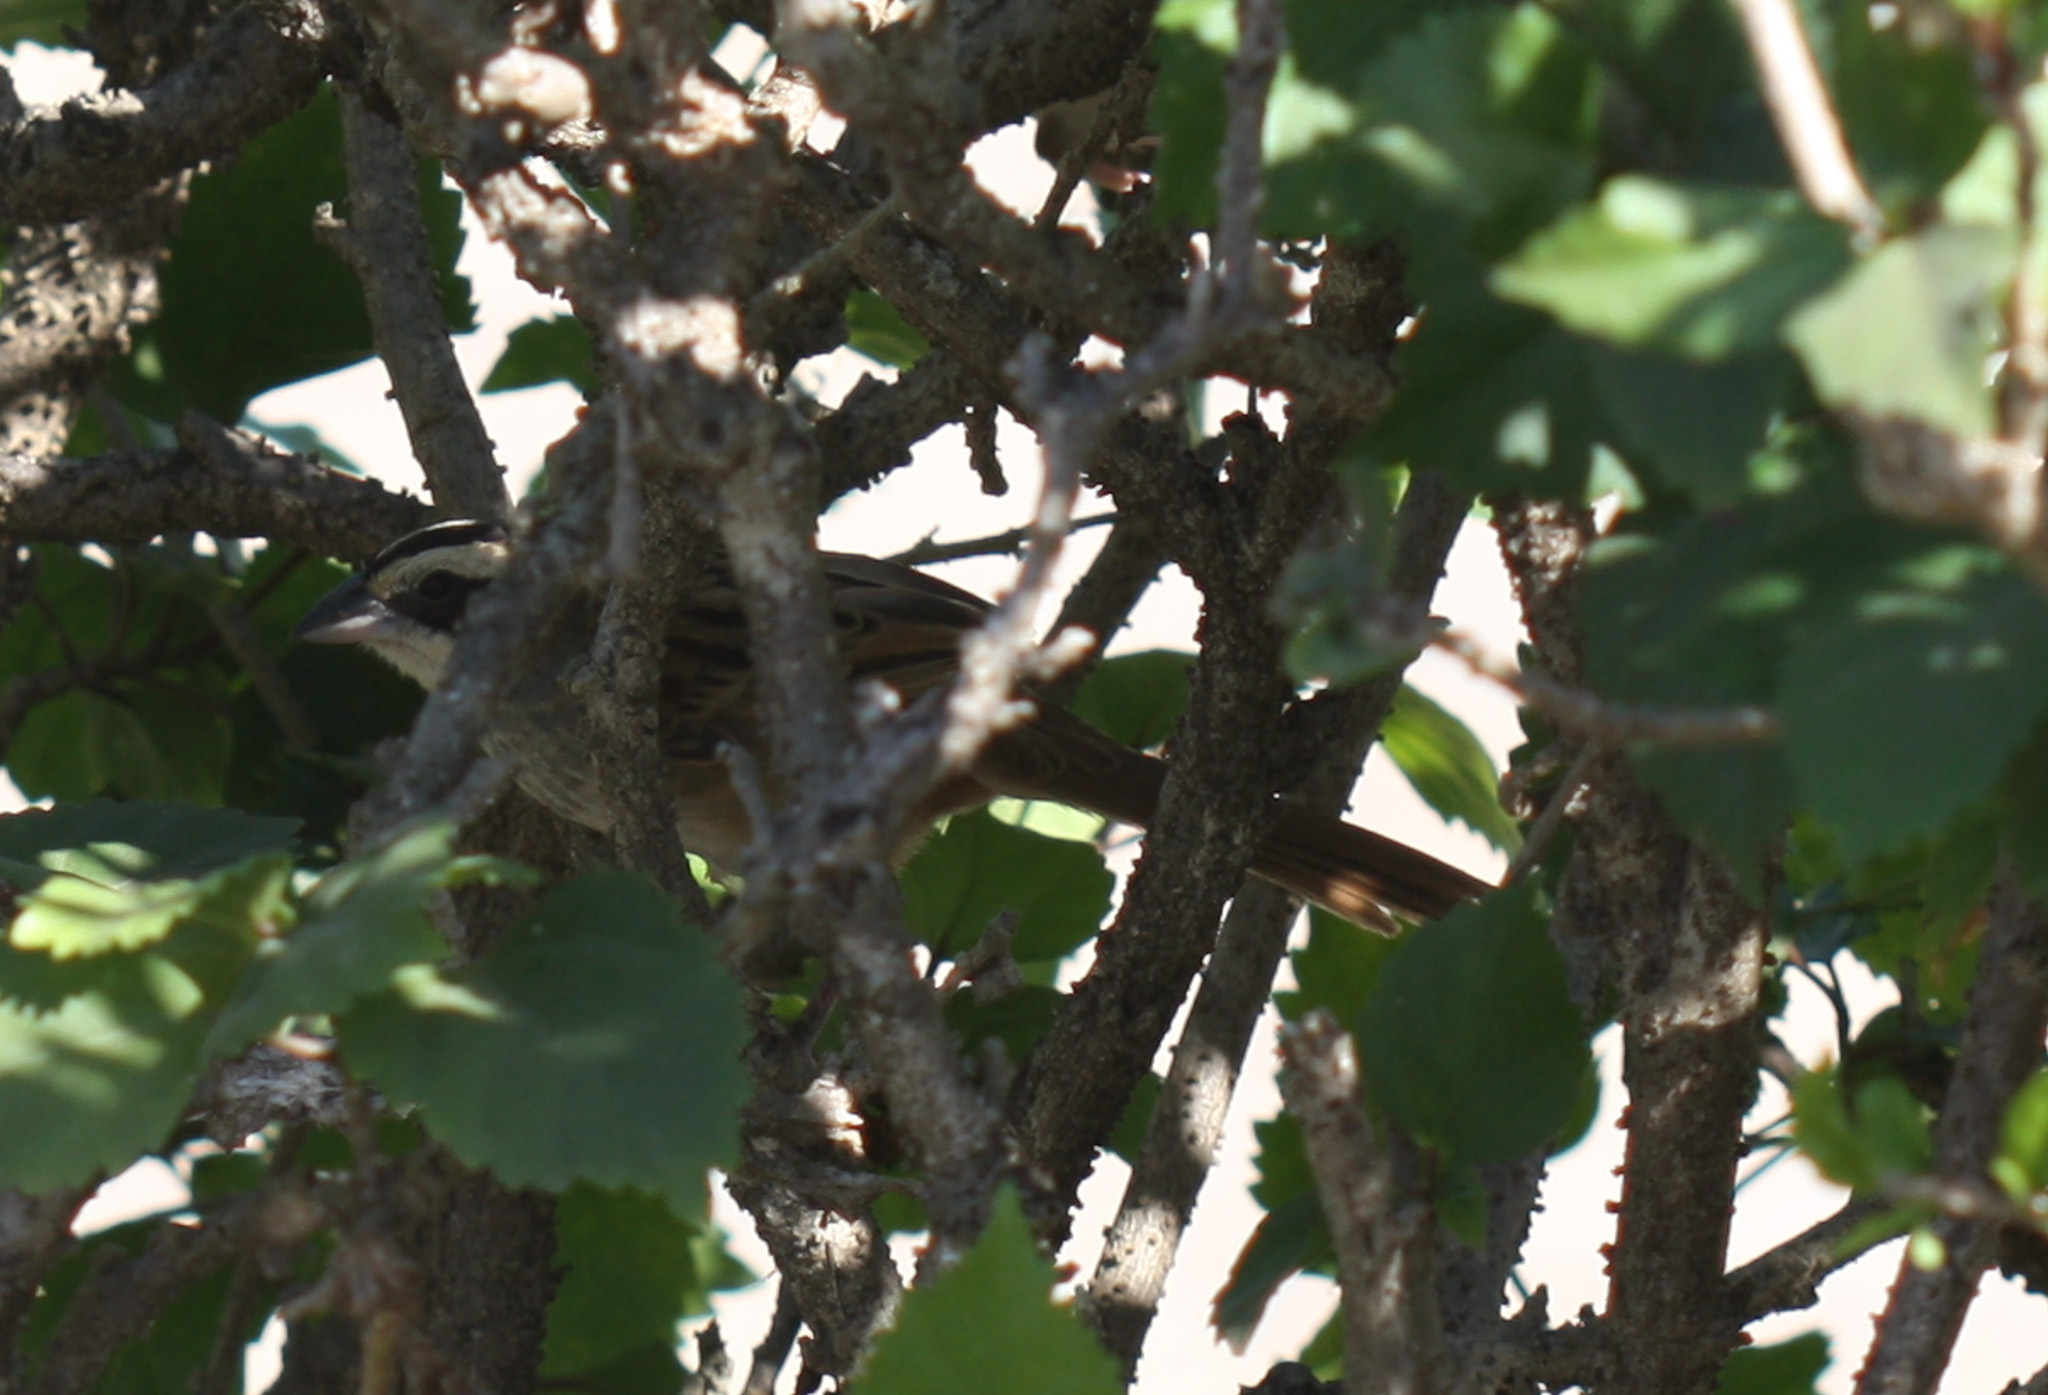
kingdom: Animalia
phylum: Chordata
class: Aves
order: Passeriformes
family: Passerellidae
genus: Peucaea
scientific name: Peucaea ruficauda
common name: Stripe-headed sparrow
